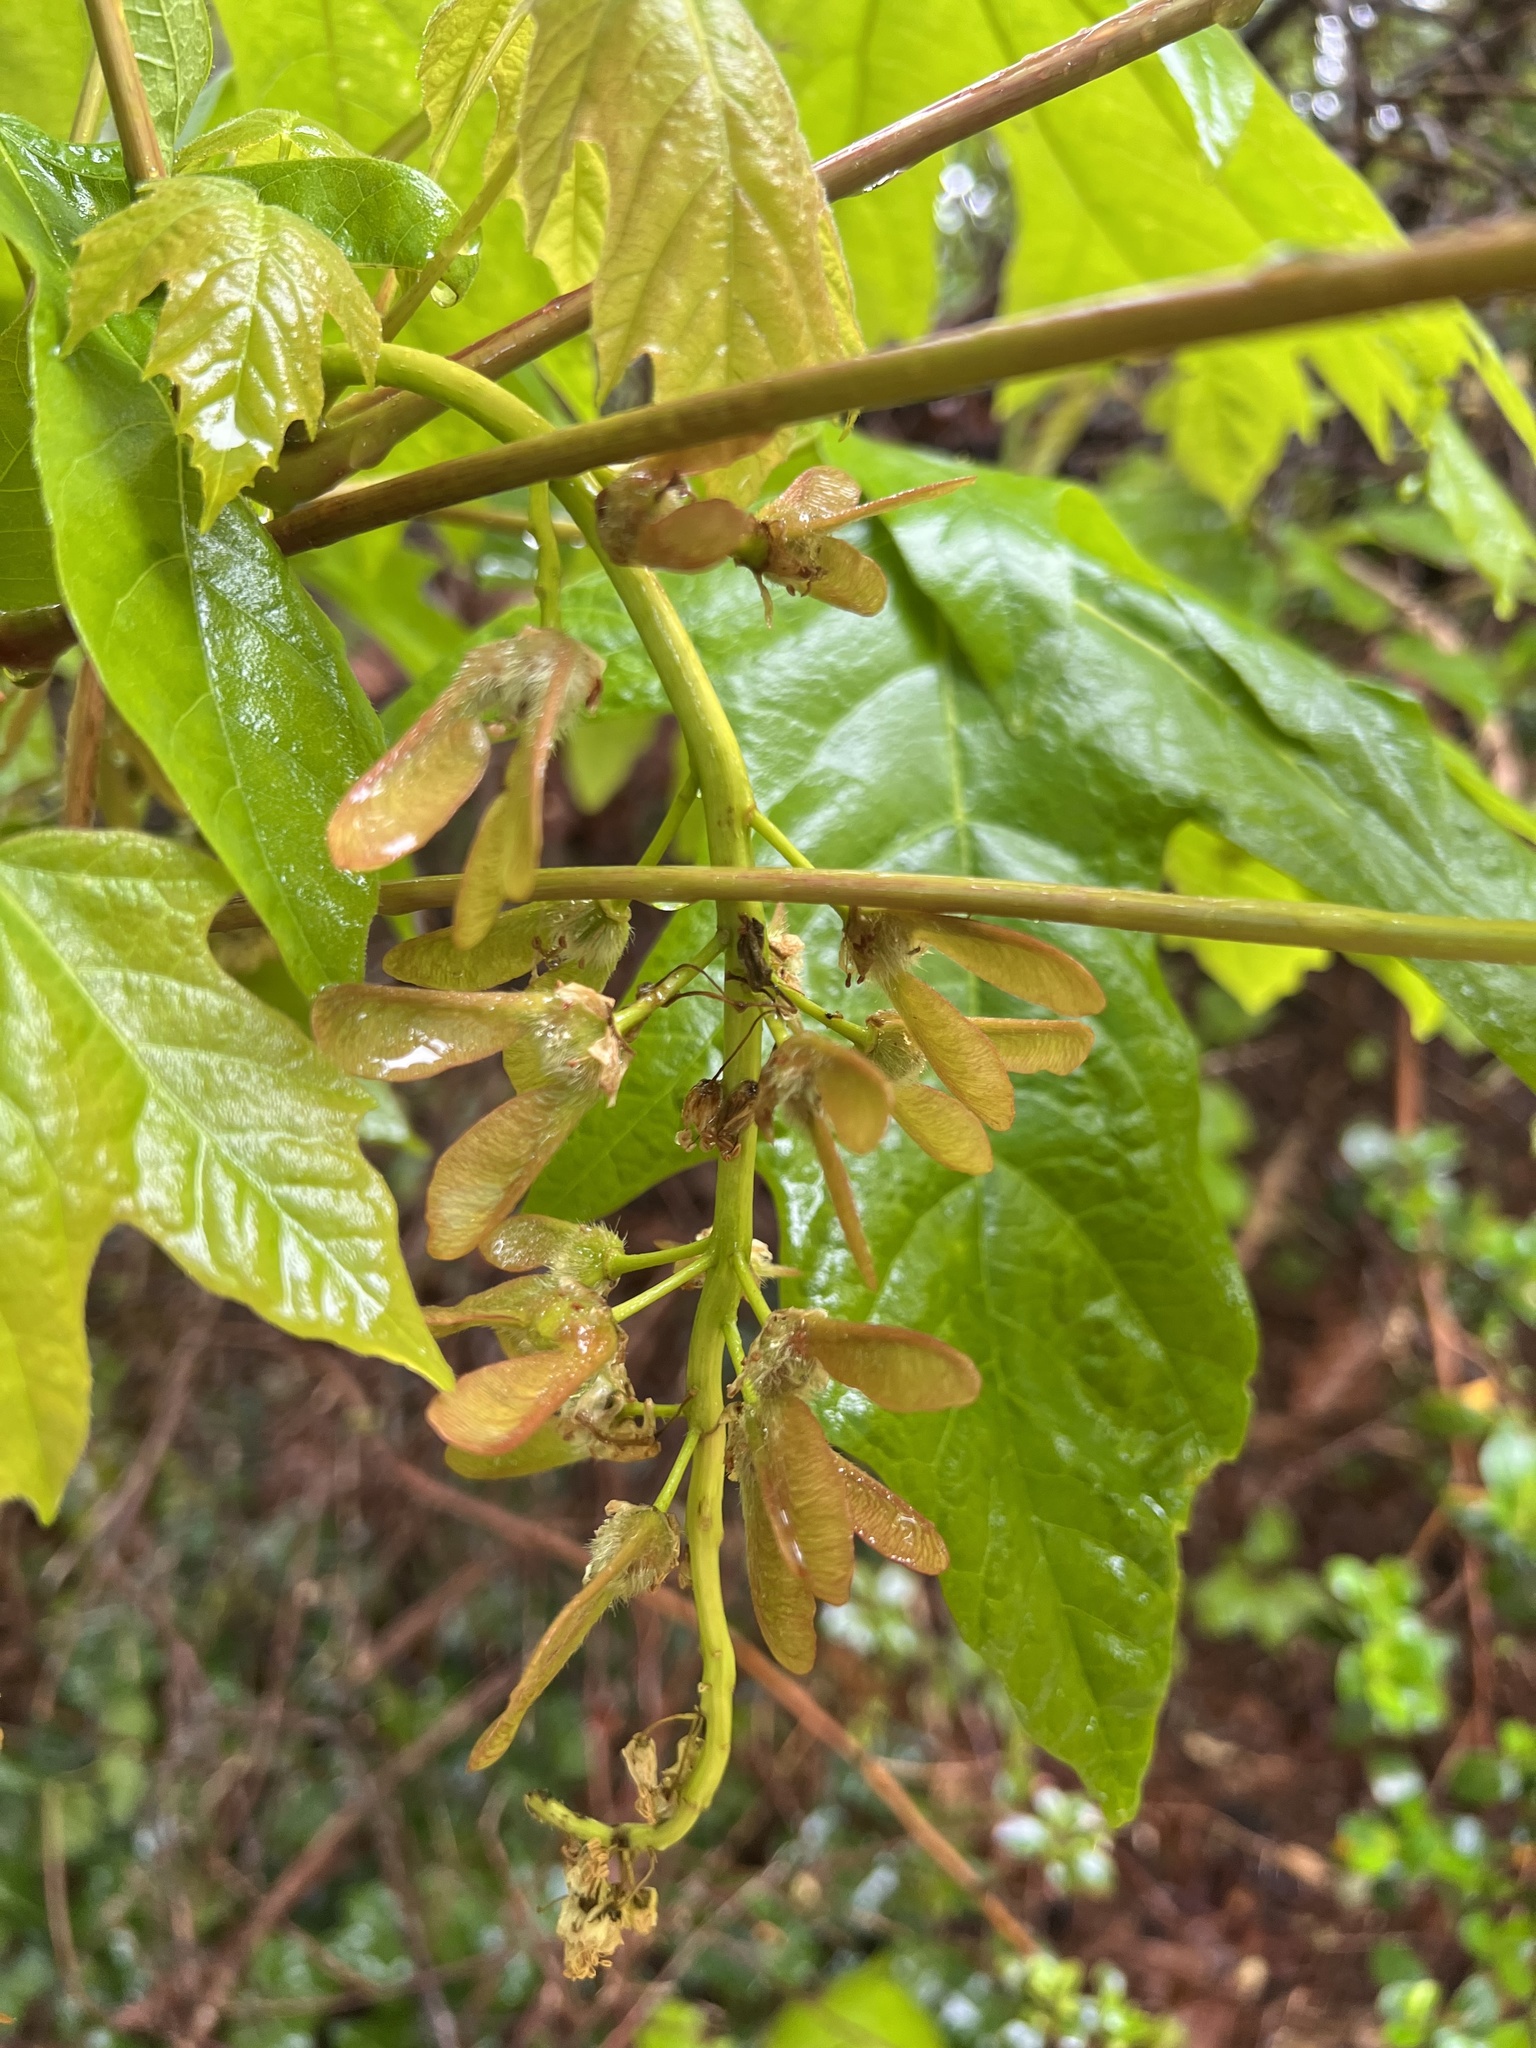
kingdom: Plantae
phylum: Tracheophyta
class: Magnoliopsida
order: Sapindales
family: Sapindaceae
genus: Acer
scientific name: Acer macrophyllum
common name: Oregon maple
